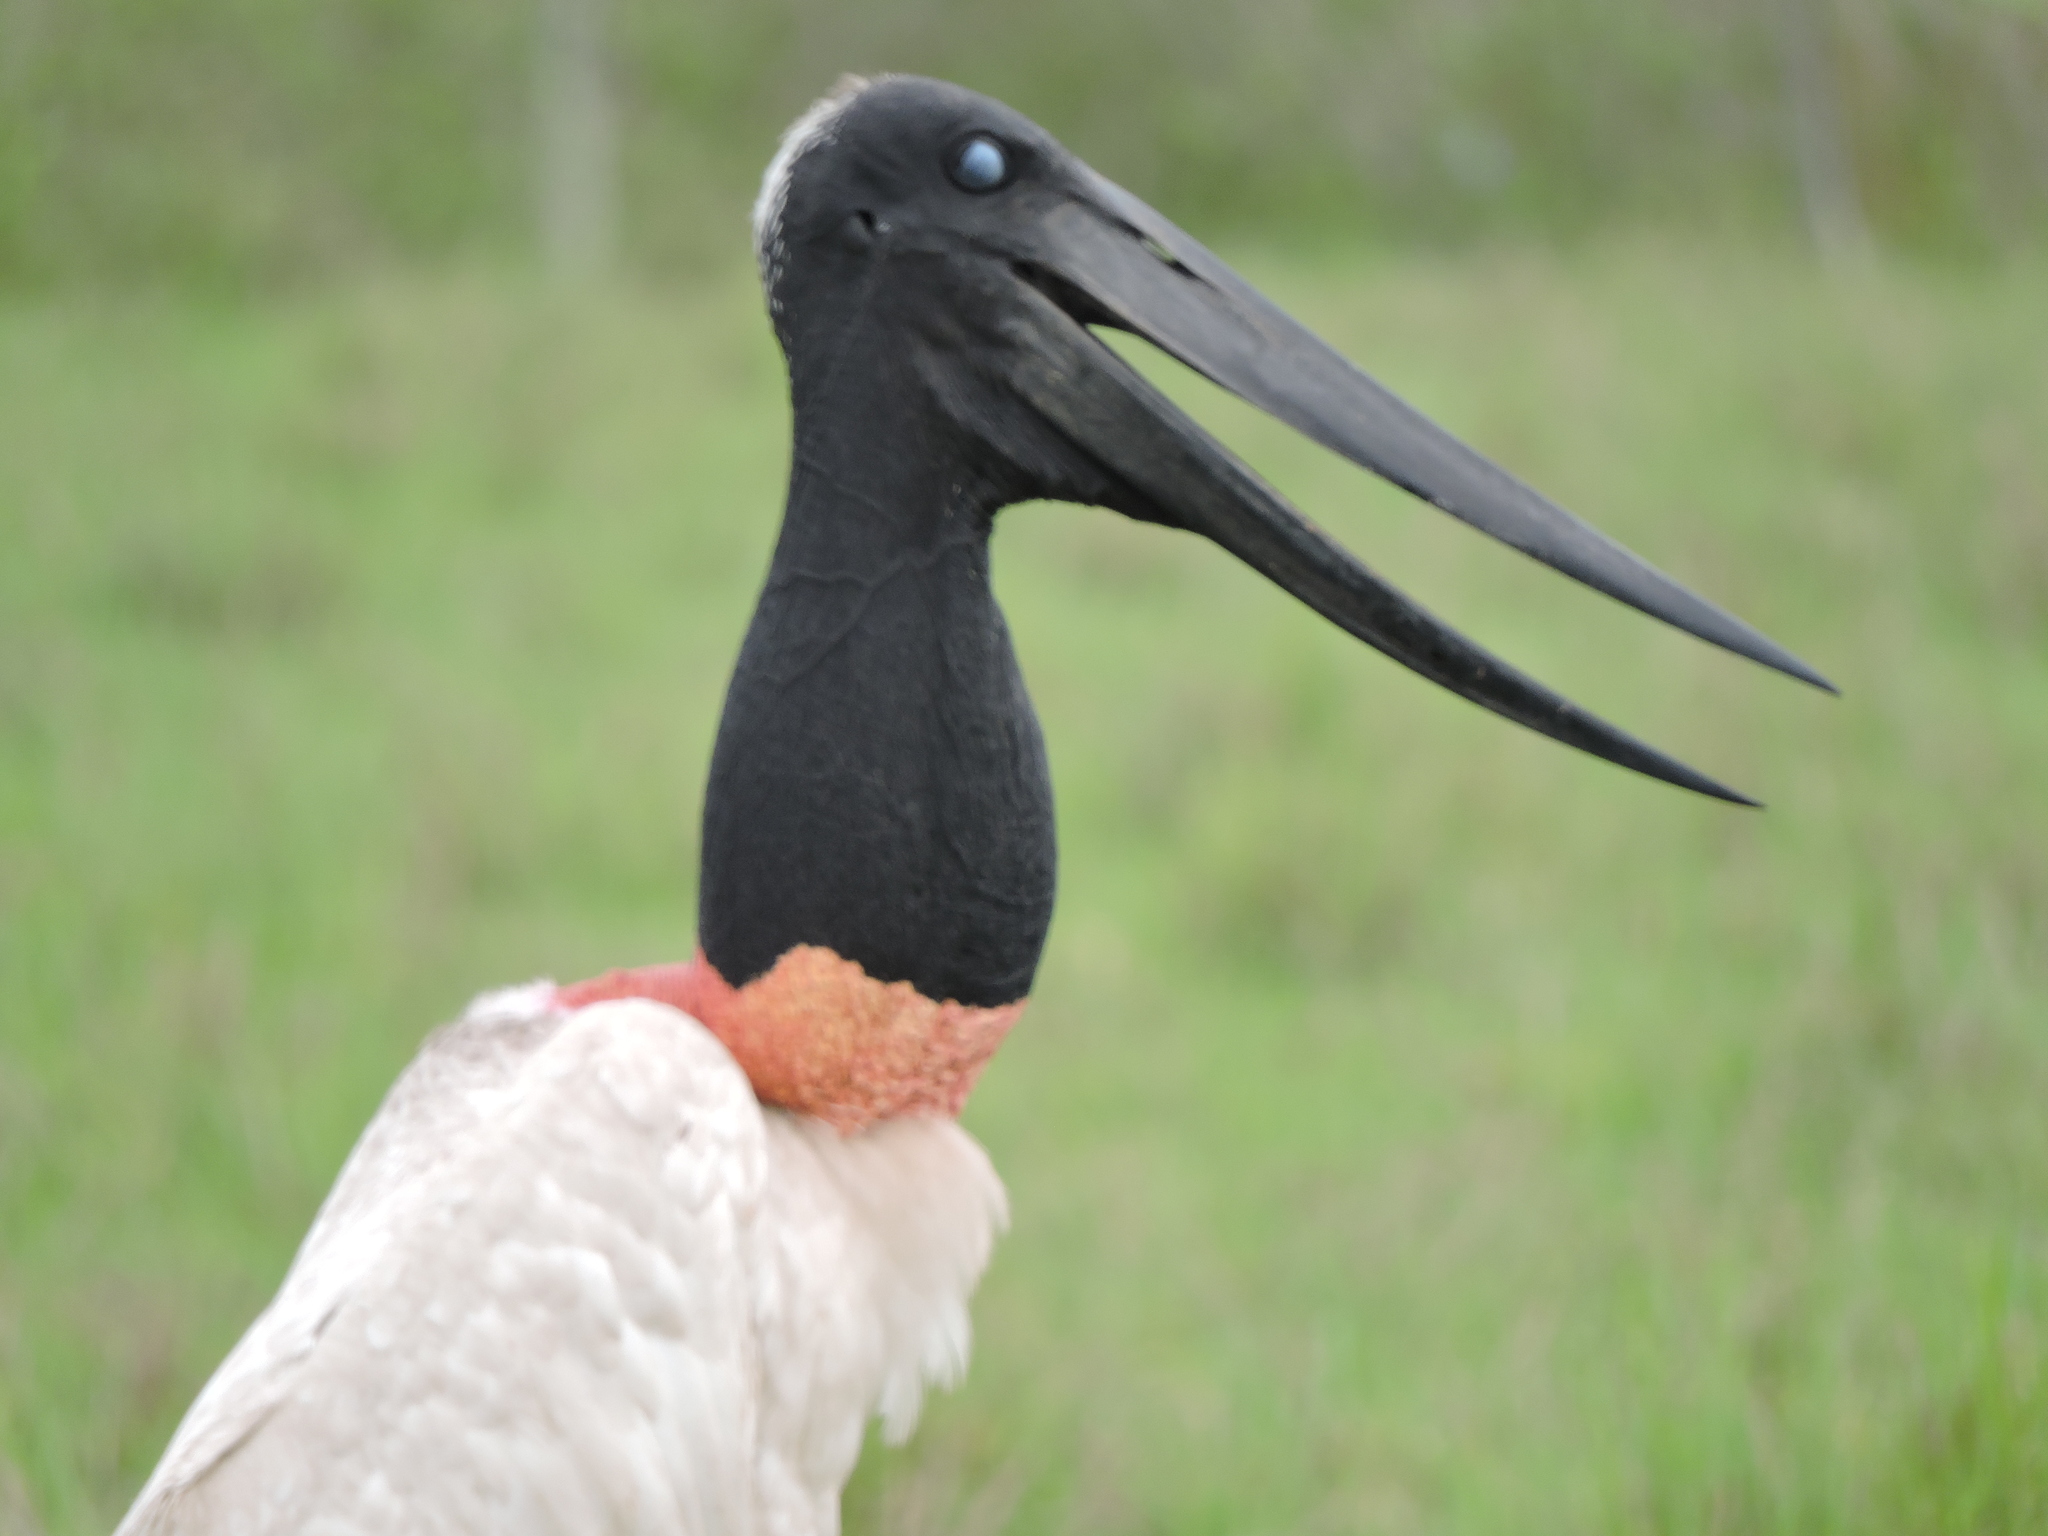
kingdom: Animalia
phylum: Chordata
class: Aves
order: Ciconiiformes
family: Ciconiidae
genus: Jabiru
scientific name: Jabiru mycteria
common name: Jabiru
